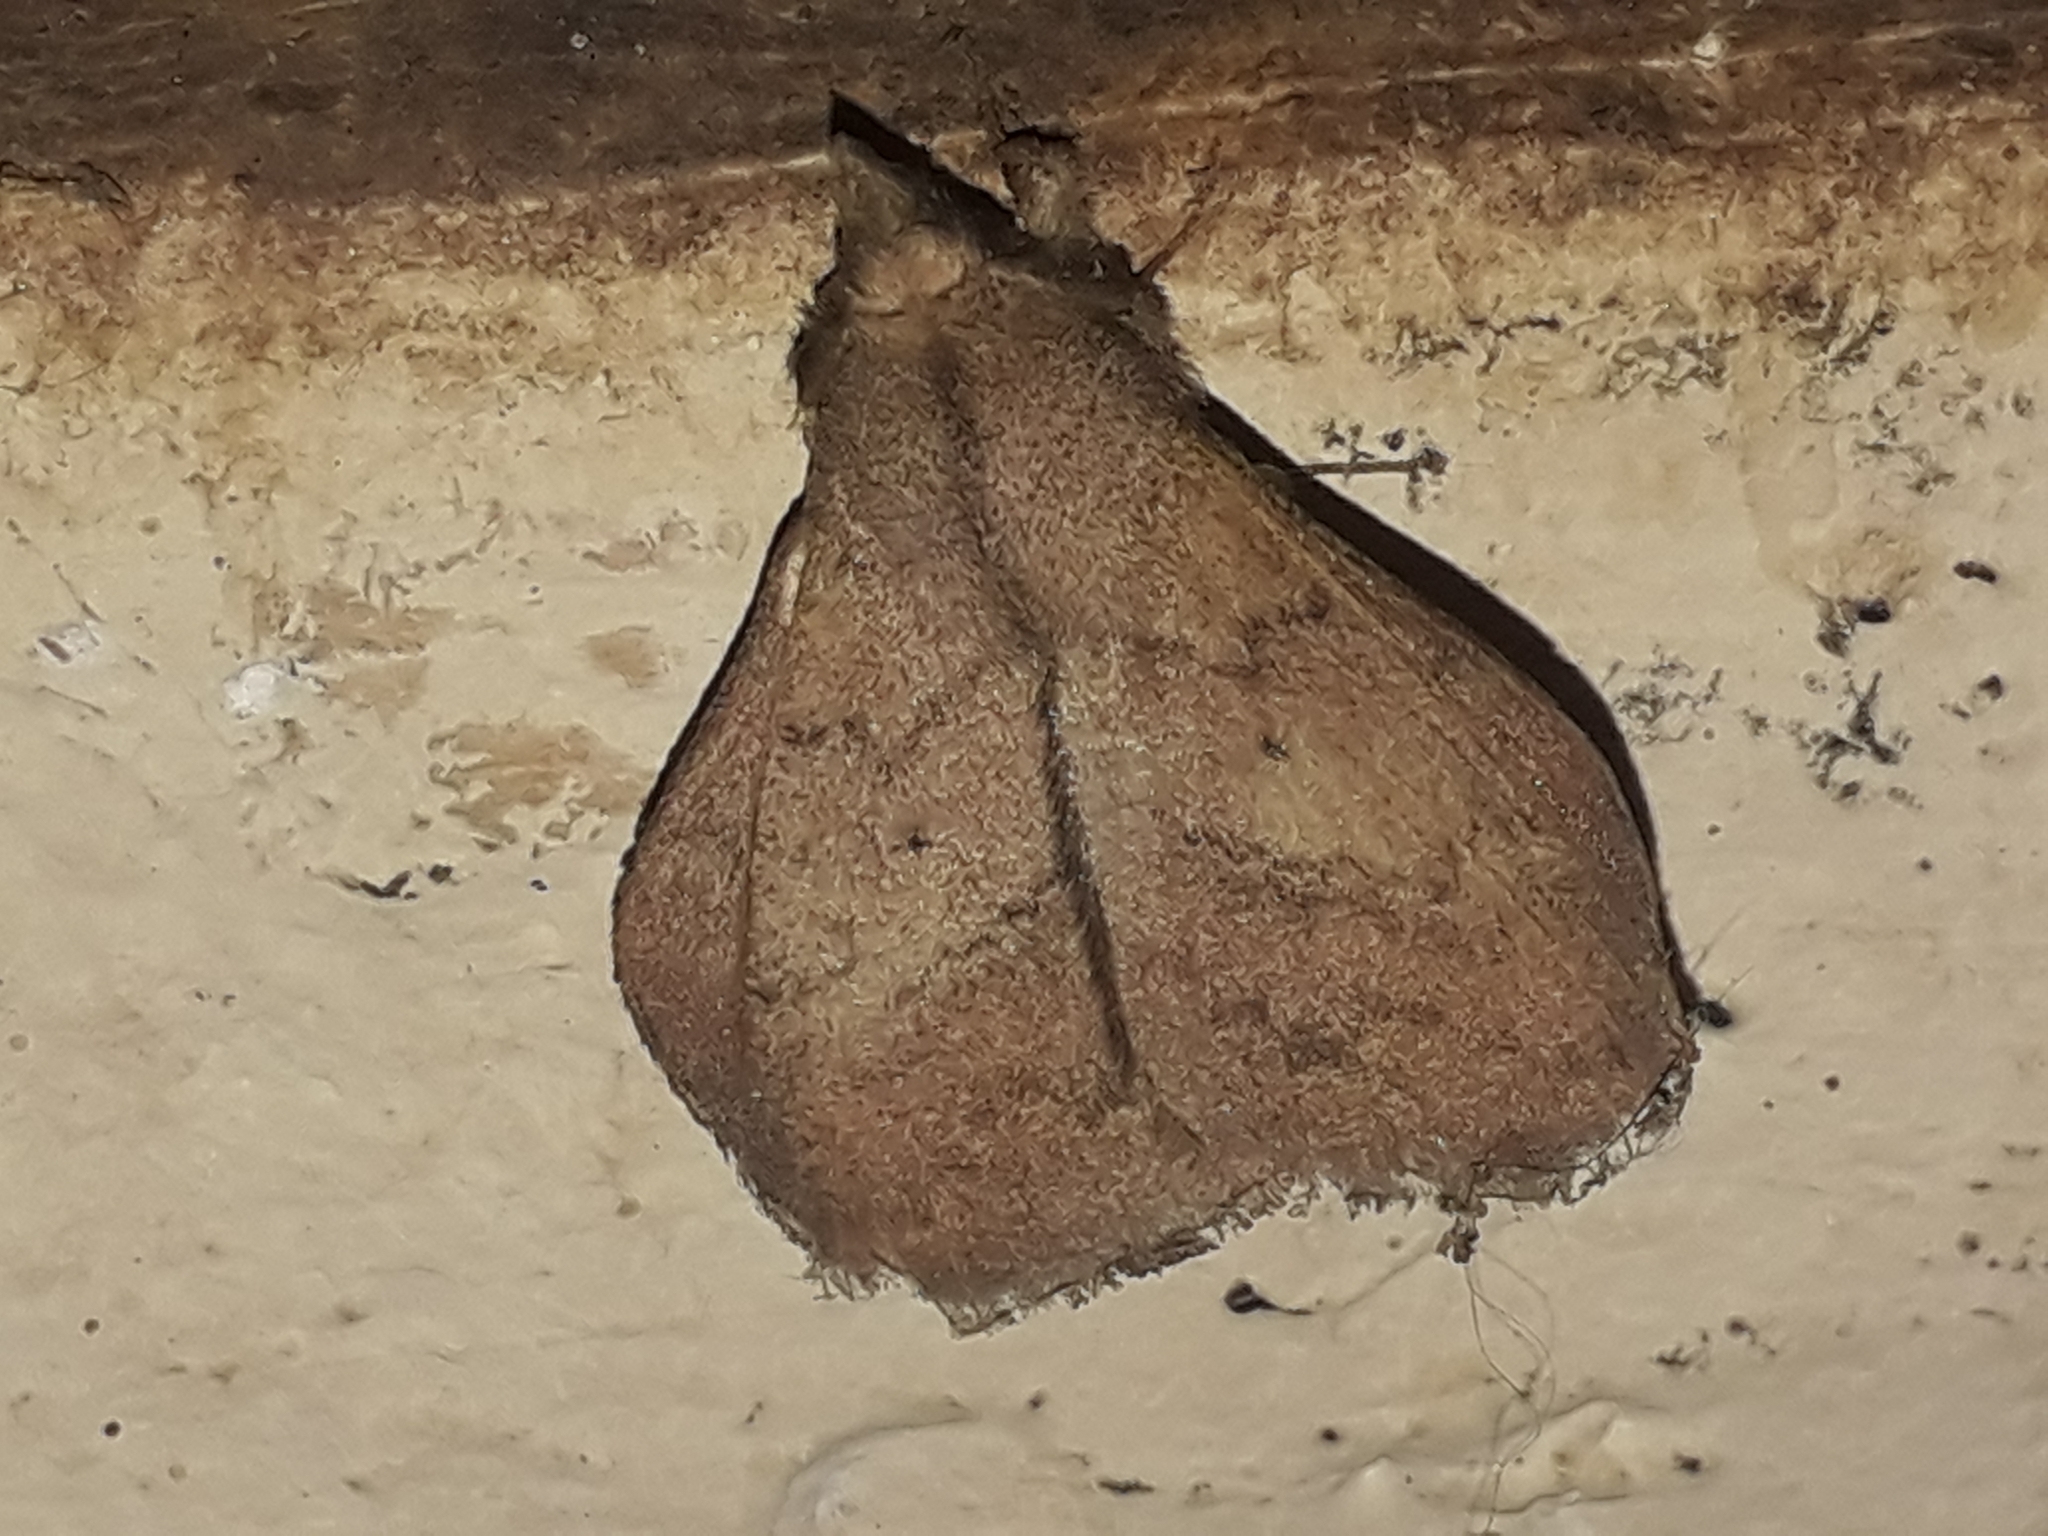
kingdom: Animalia
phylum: Arthropoda
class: Insecta
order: Lepidoptera
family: Lasiocampidae
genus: Leipoxais
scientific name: Leipoxais peraffinis
